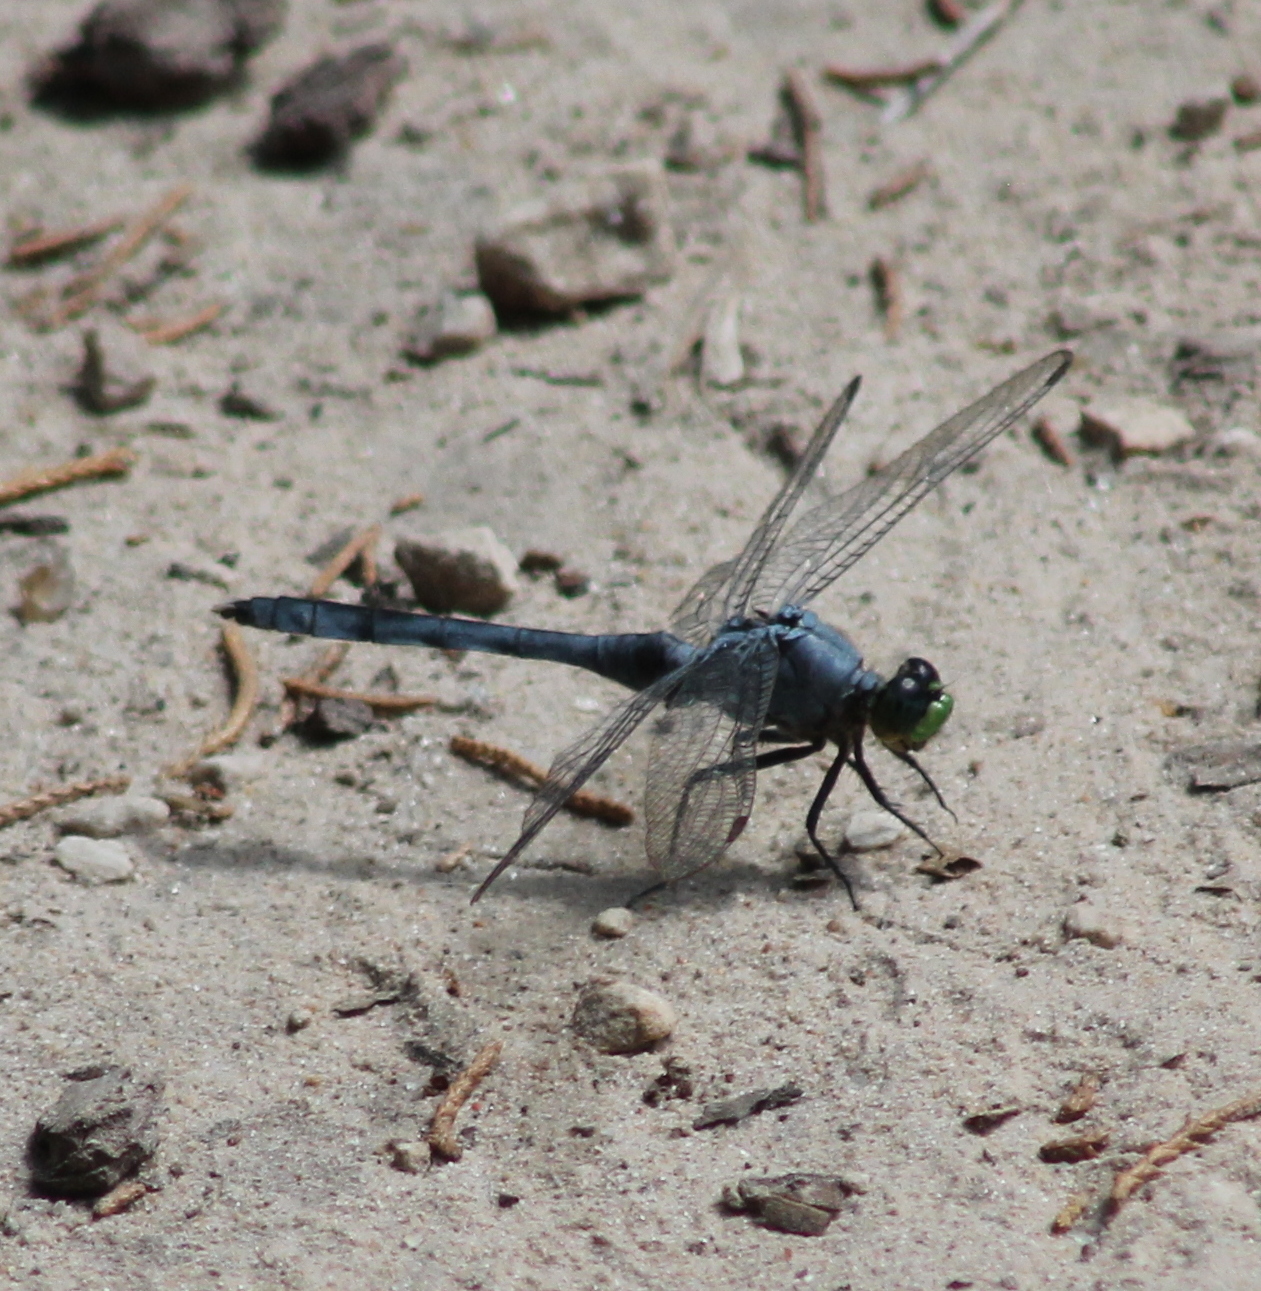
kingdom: Animalia
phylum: Arthropoda
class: Insecta
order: Odonata
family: Libellulidae
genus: Erythemis
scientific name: Erythemis simplicicollis
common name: Eastern pondhawk
